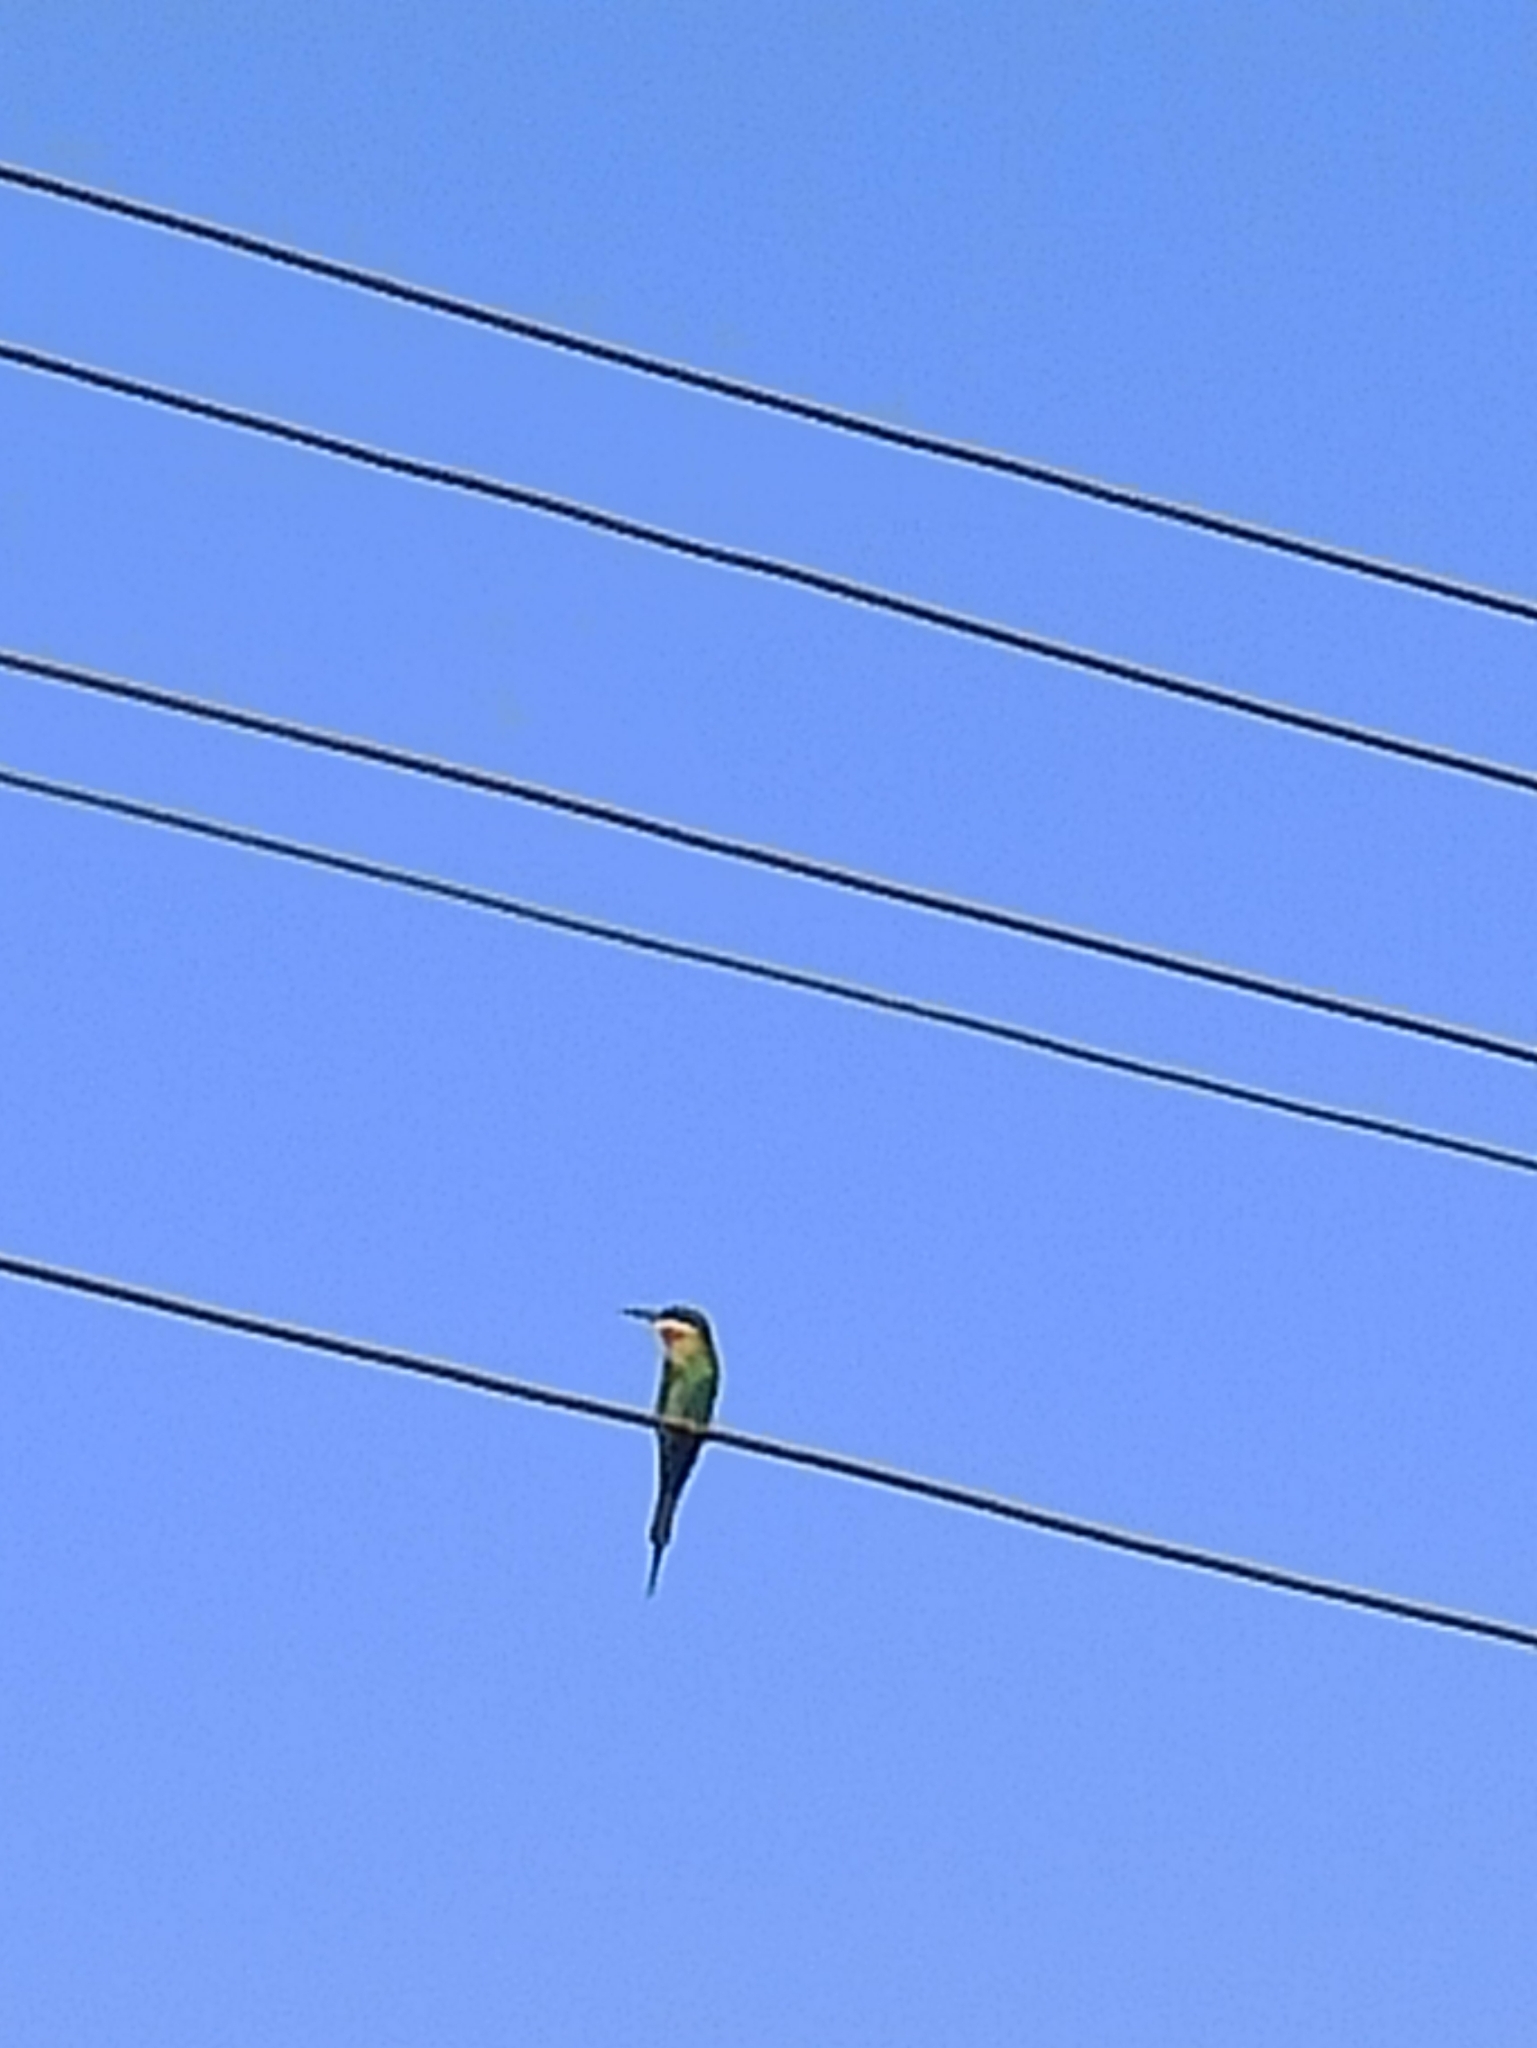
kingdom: Animalia
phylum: Chordata
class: Aves
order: Coraciiformes
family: Meropidae
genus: Merops
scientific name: Merops philippinus
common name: Blue-tailed bee-eater
